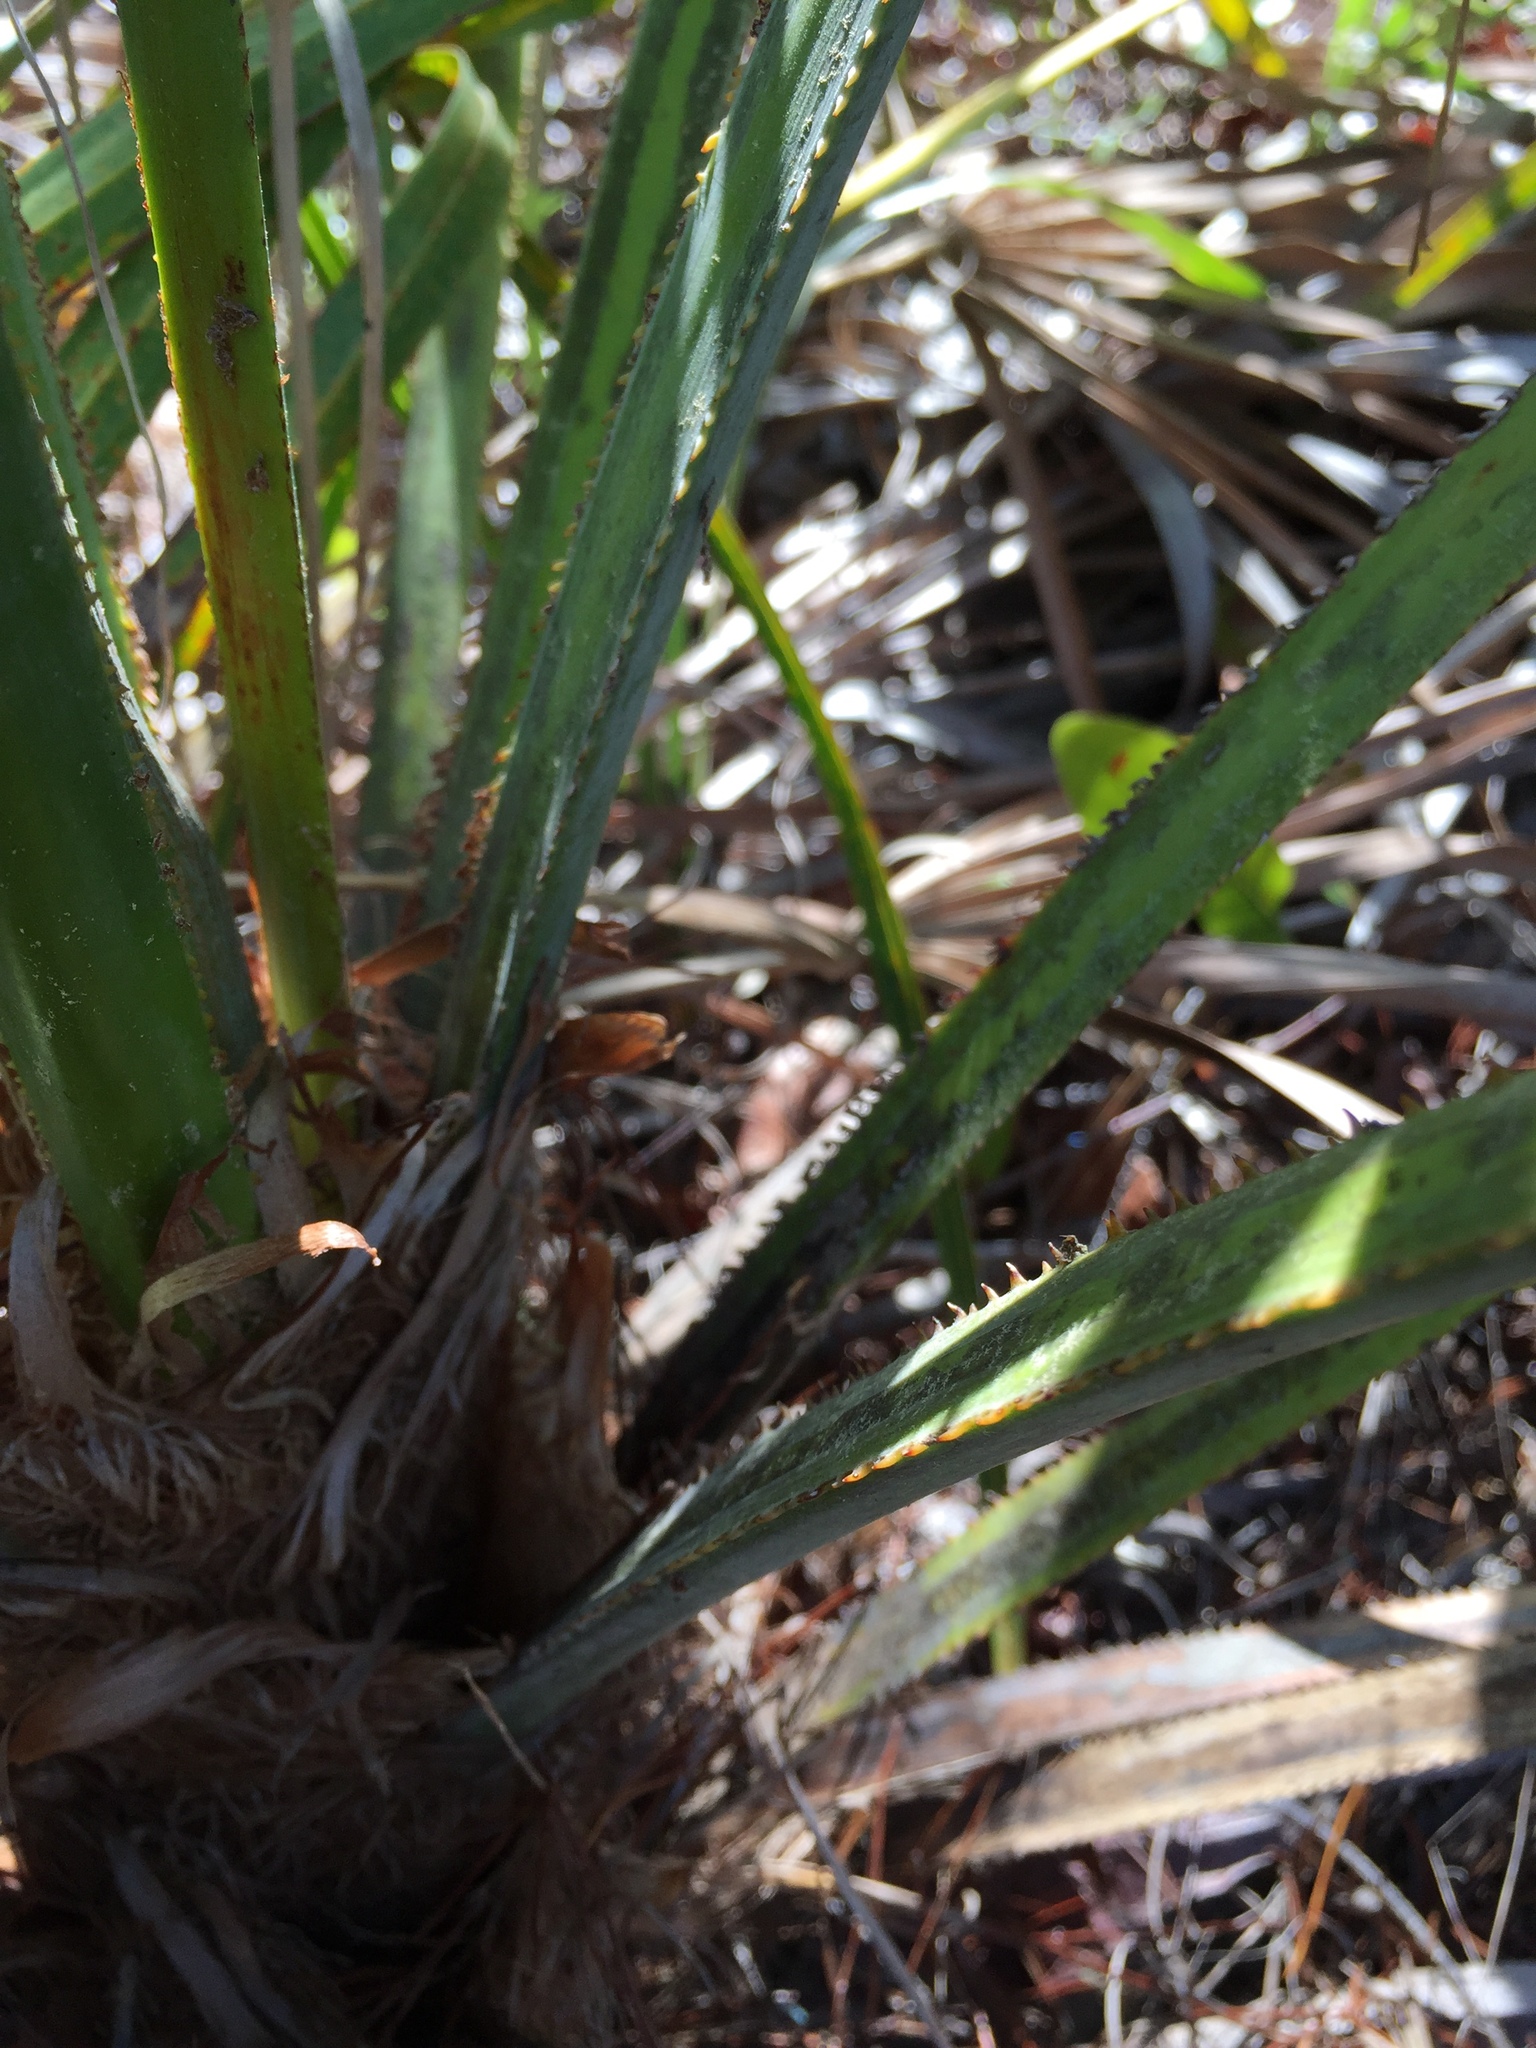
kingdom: Plantae
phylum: Tracheophyta
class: Liliopsida
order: Arecales
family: Arecaceae
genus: Serenoa
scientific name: Serenoa repens
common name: Saw-palmetto
